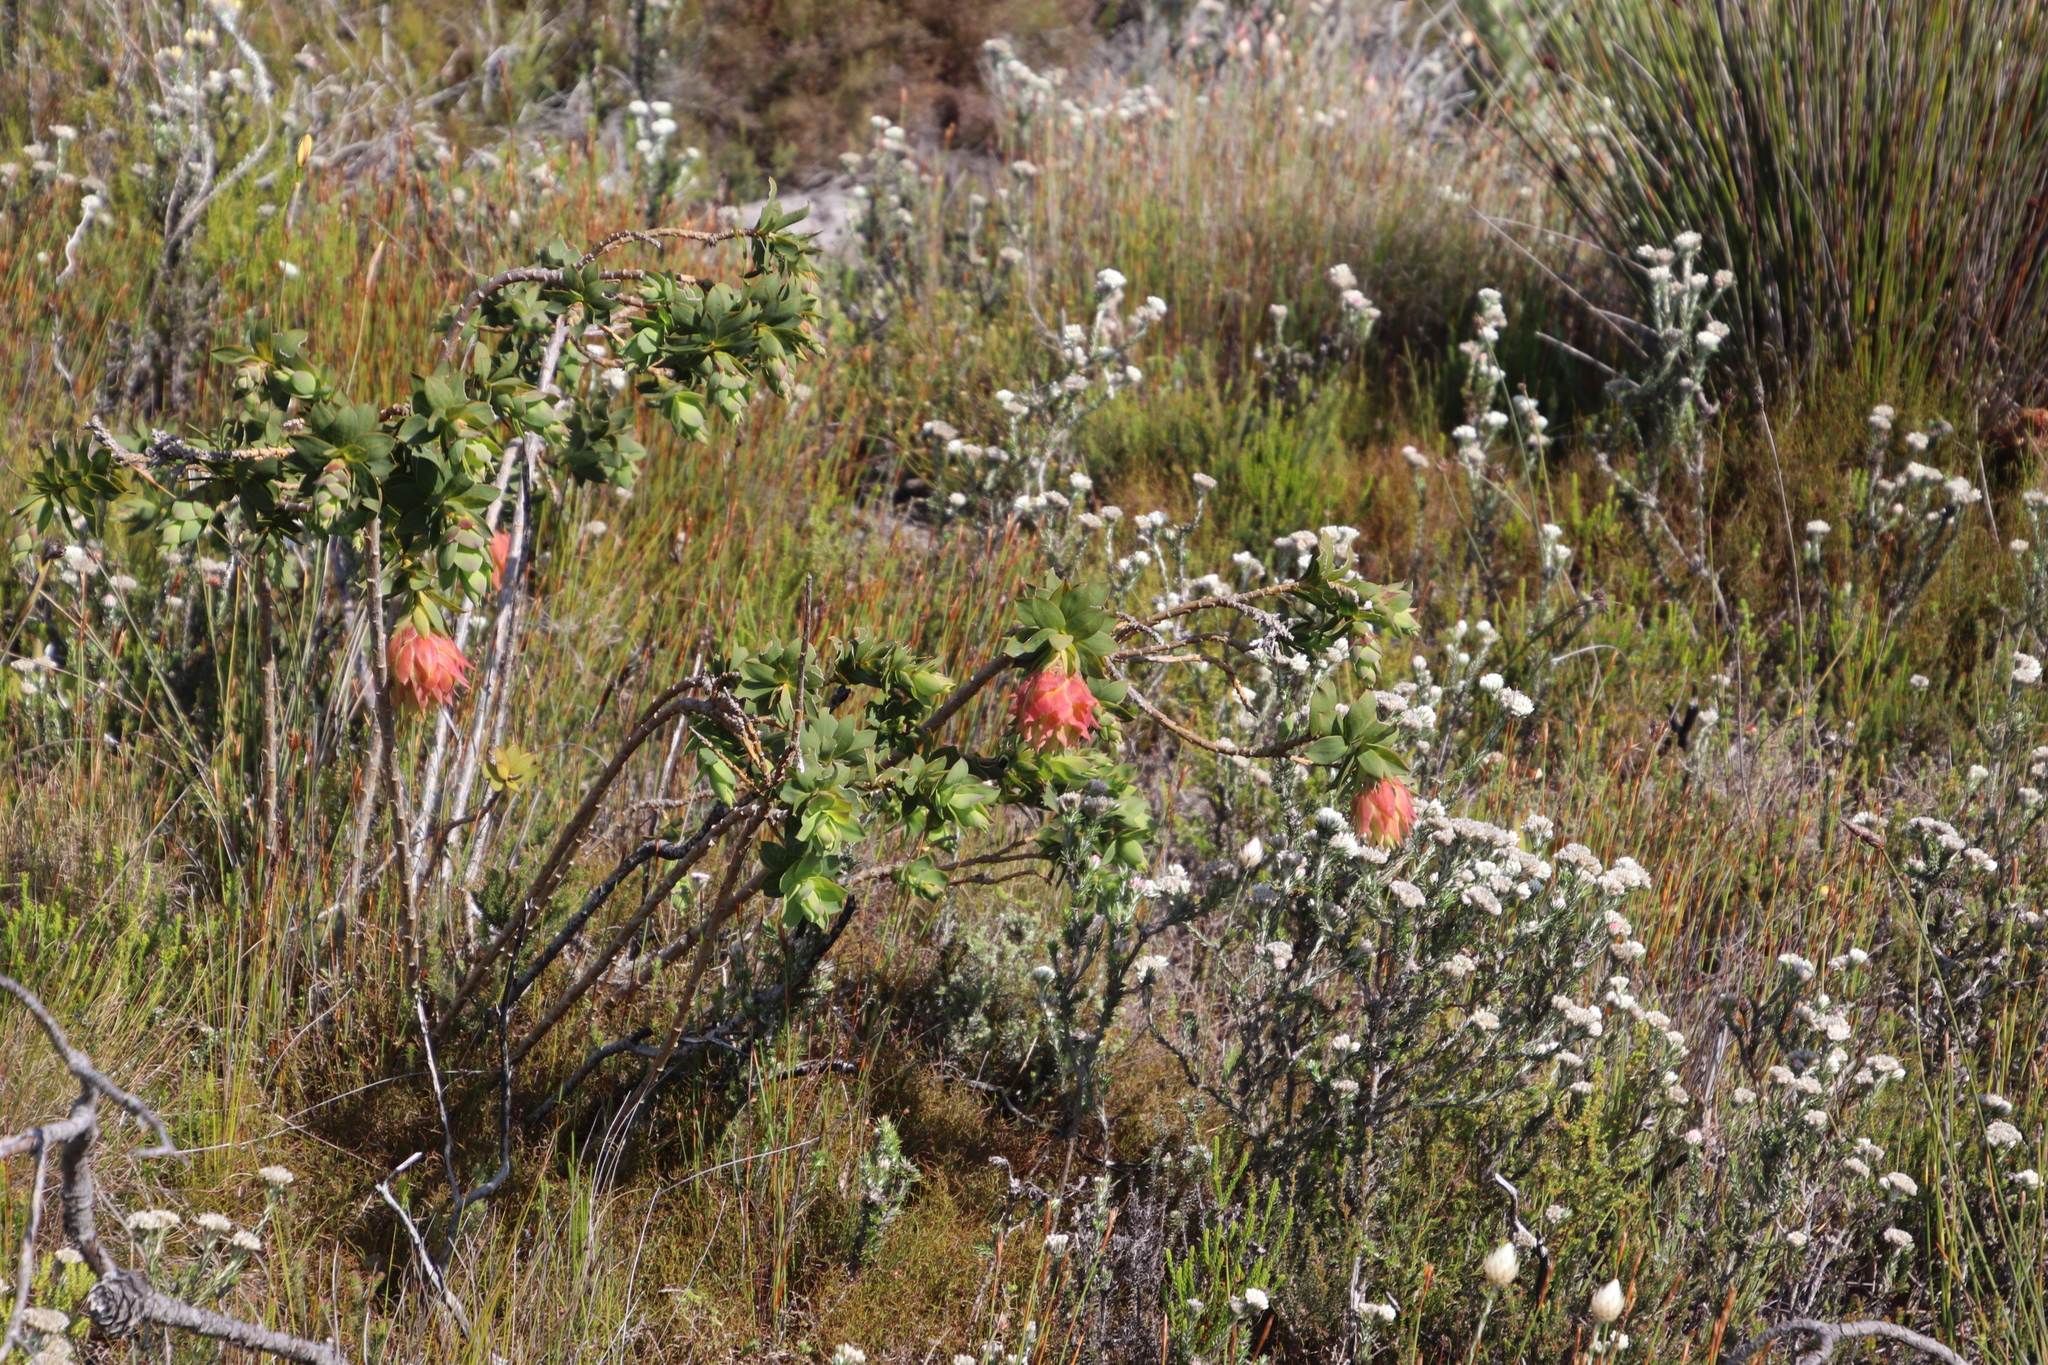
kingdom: Plantae
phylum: Tracheophyta
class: Magnoliopsida
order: Fabales
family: Fabaceae
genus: Liparia
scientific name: Liparia splendens
